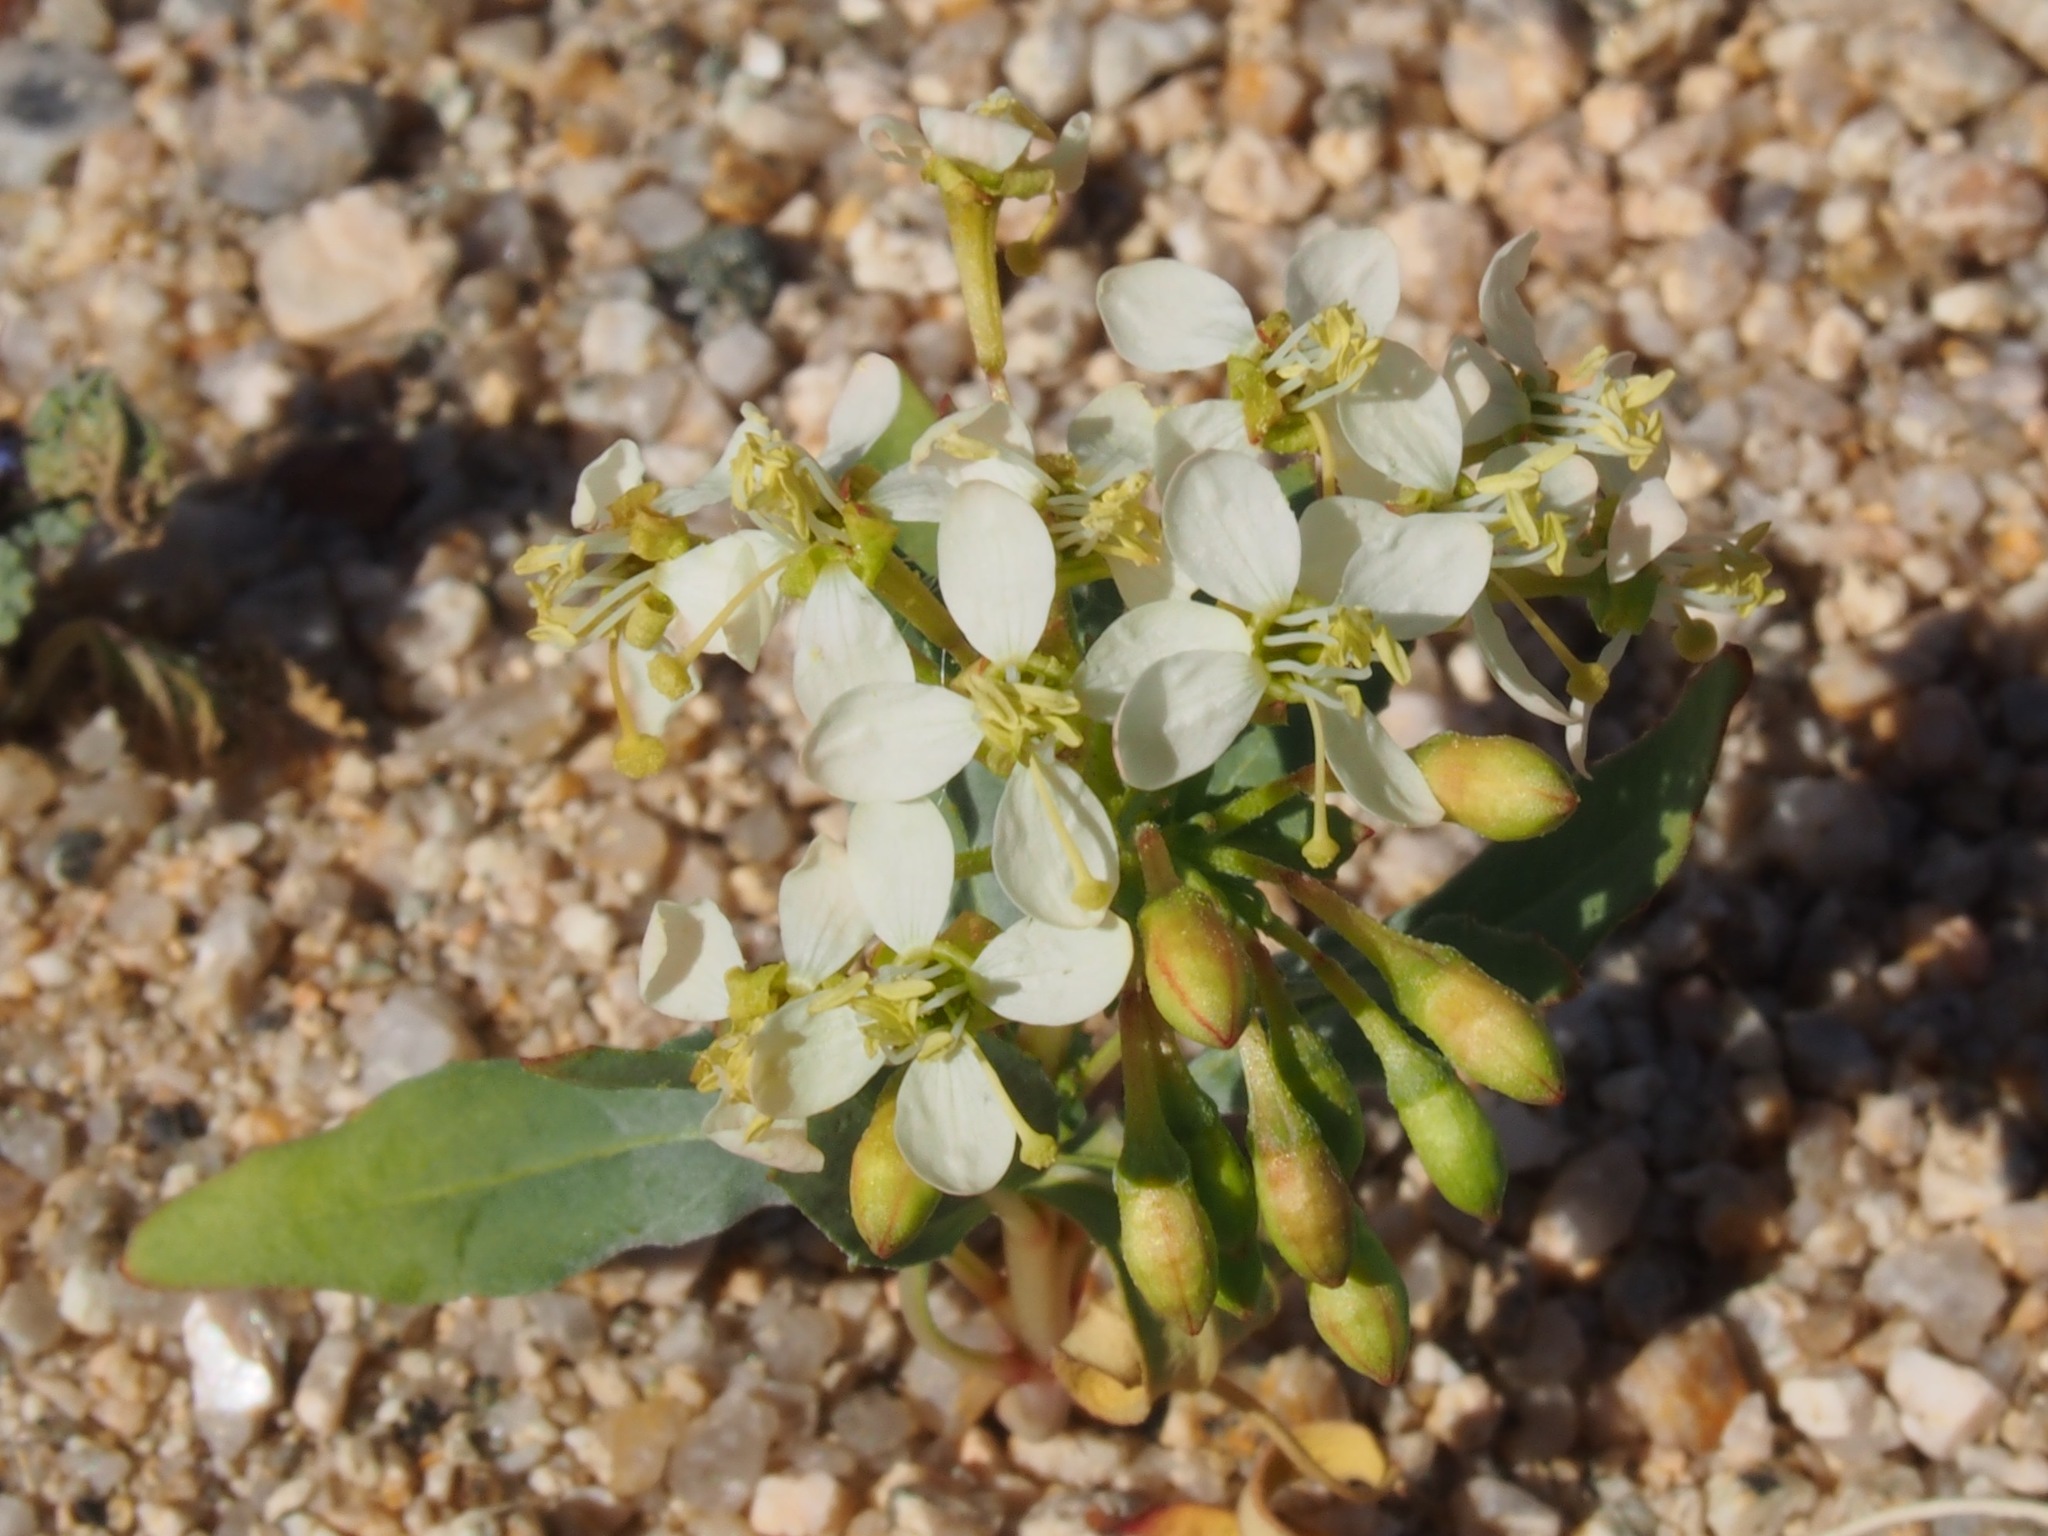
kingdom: Plantae
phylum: Tracheophyta
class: Magnoliopsida
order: Myrtales
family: Onagraceae
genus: Eremothera
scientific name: Eremothera boothii
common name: Booth's evening primrose
